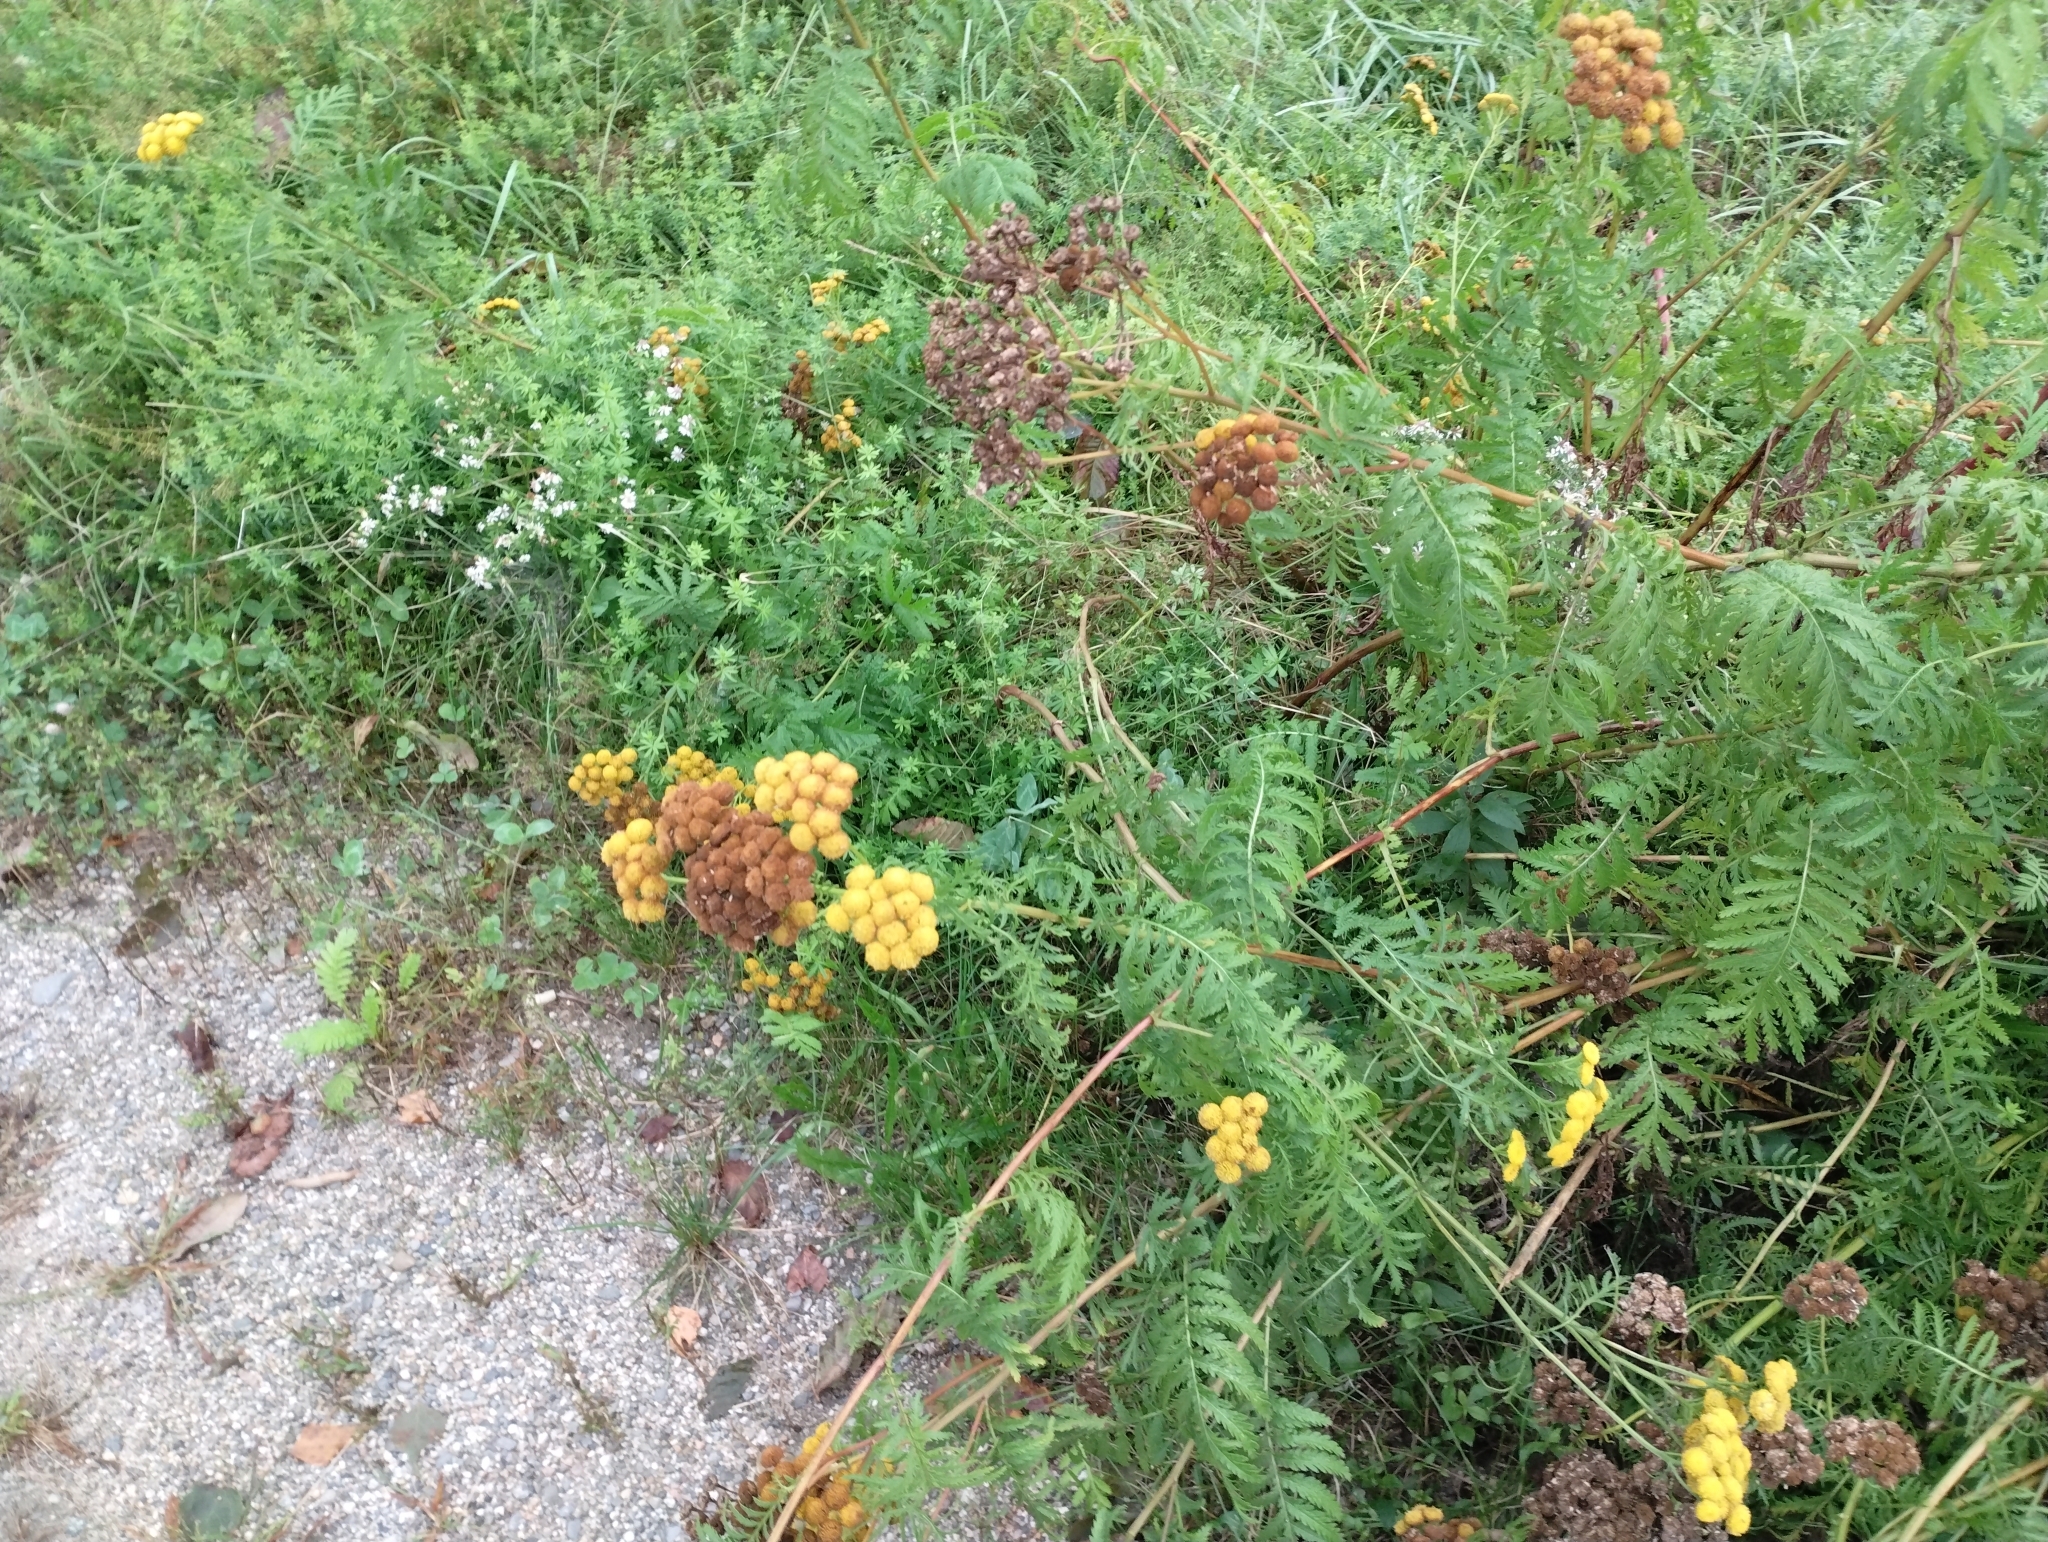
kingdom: Plantae
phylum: Tracheophyta
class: Magnoliopsida
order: Asterales
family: Asteraceae
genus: Tanacetum
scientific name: Tanacetum vulgare
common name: Common tansy
